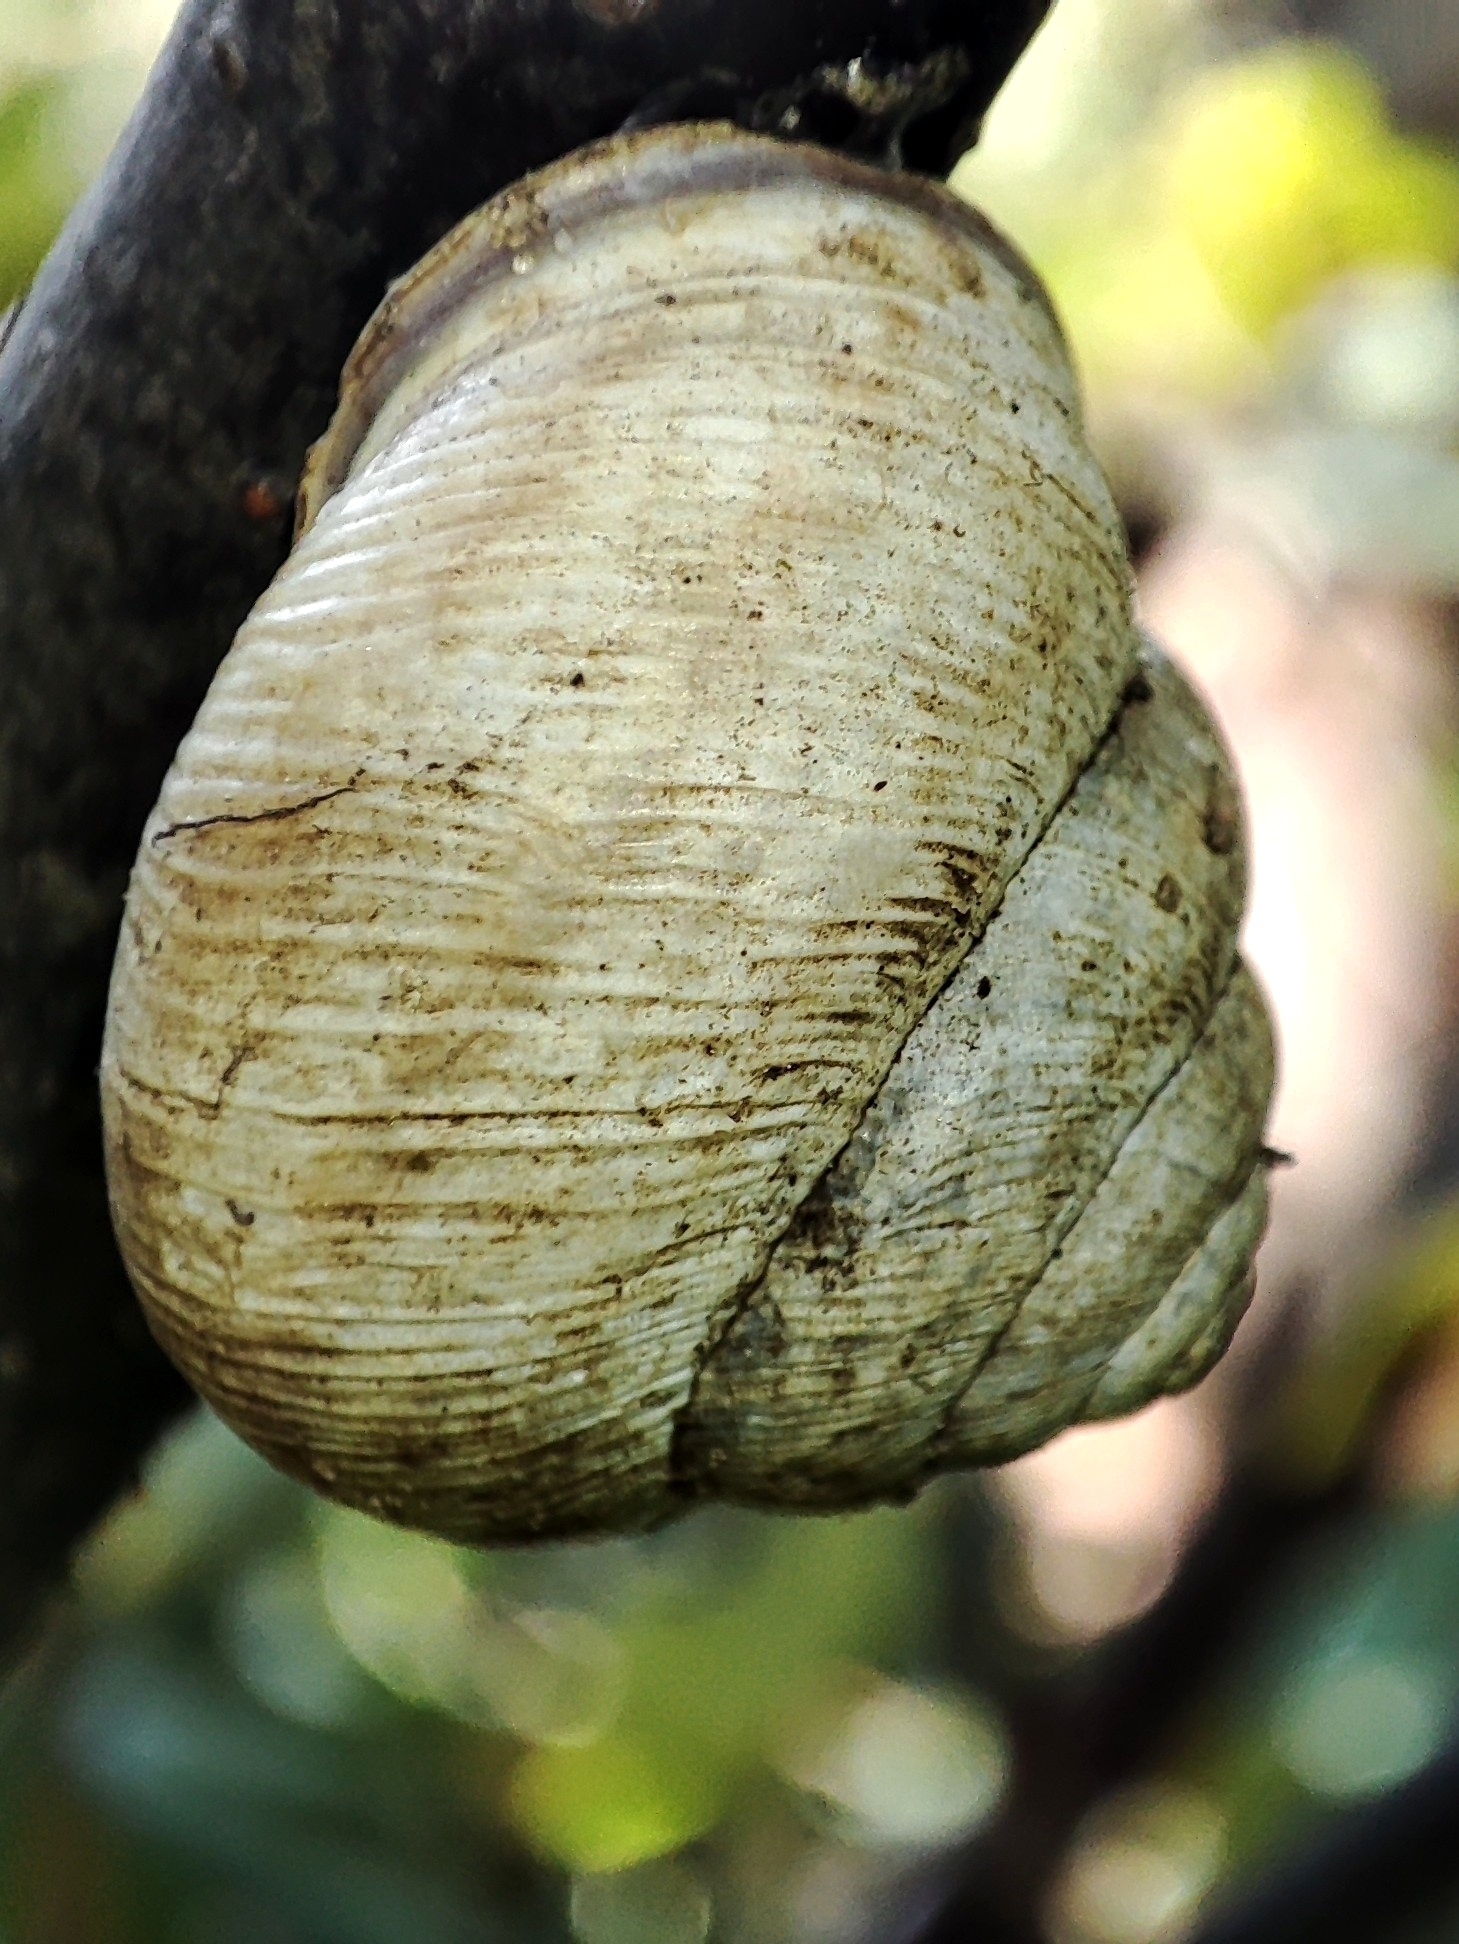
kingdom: Animalia
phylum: Mollusca
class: Gastropoda
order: Stylommatophora
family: Helicidae
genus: Caucasotachea
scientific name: Caucasotachea vindobonensis
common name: European helicid land snail
